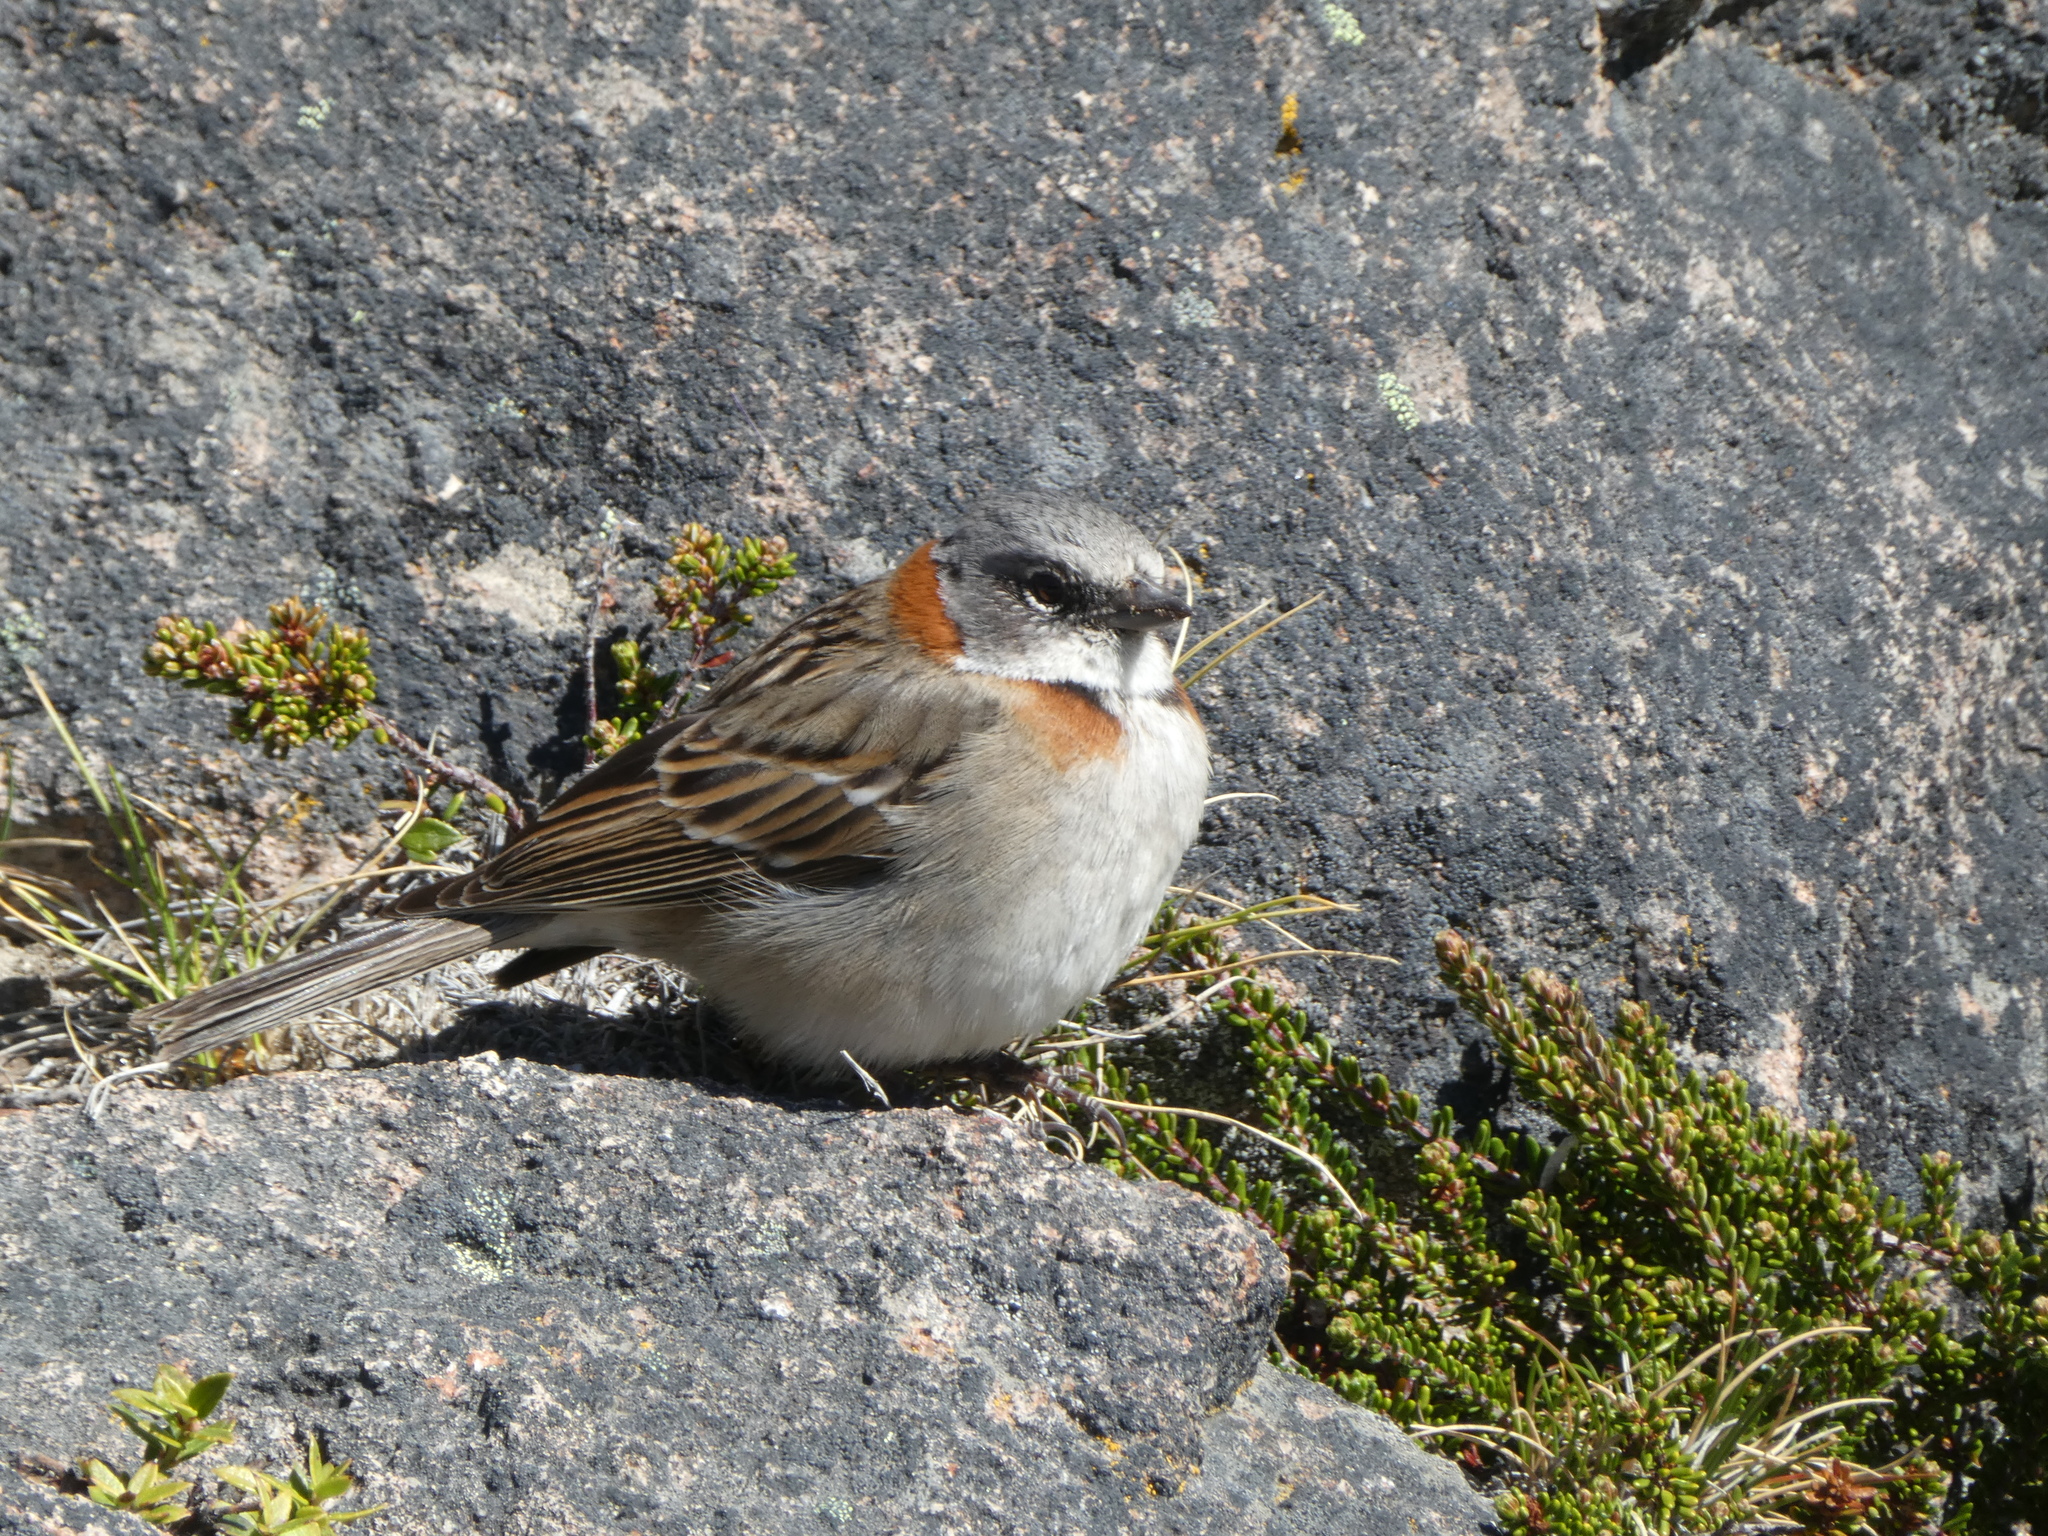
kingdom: Animalia
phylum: Chordata
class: Aves
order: Passeriformes
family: Passerellidae
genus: Zonotrichia
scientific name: Zonotrichia capensis
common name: Rufous-collared sparrow
